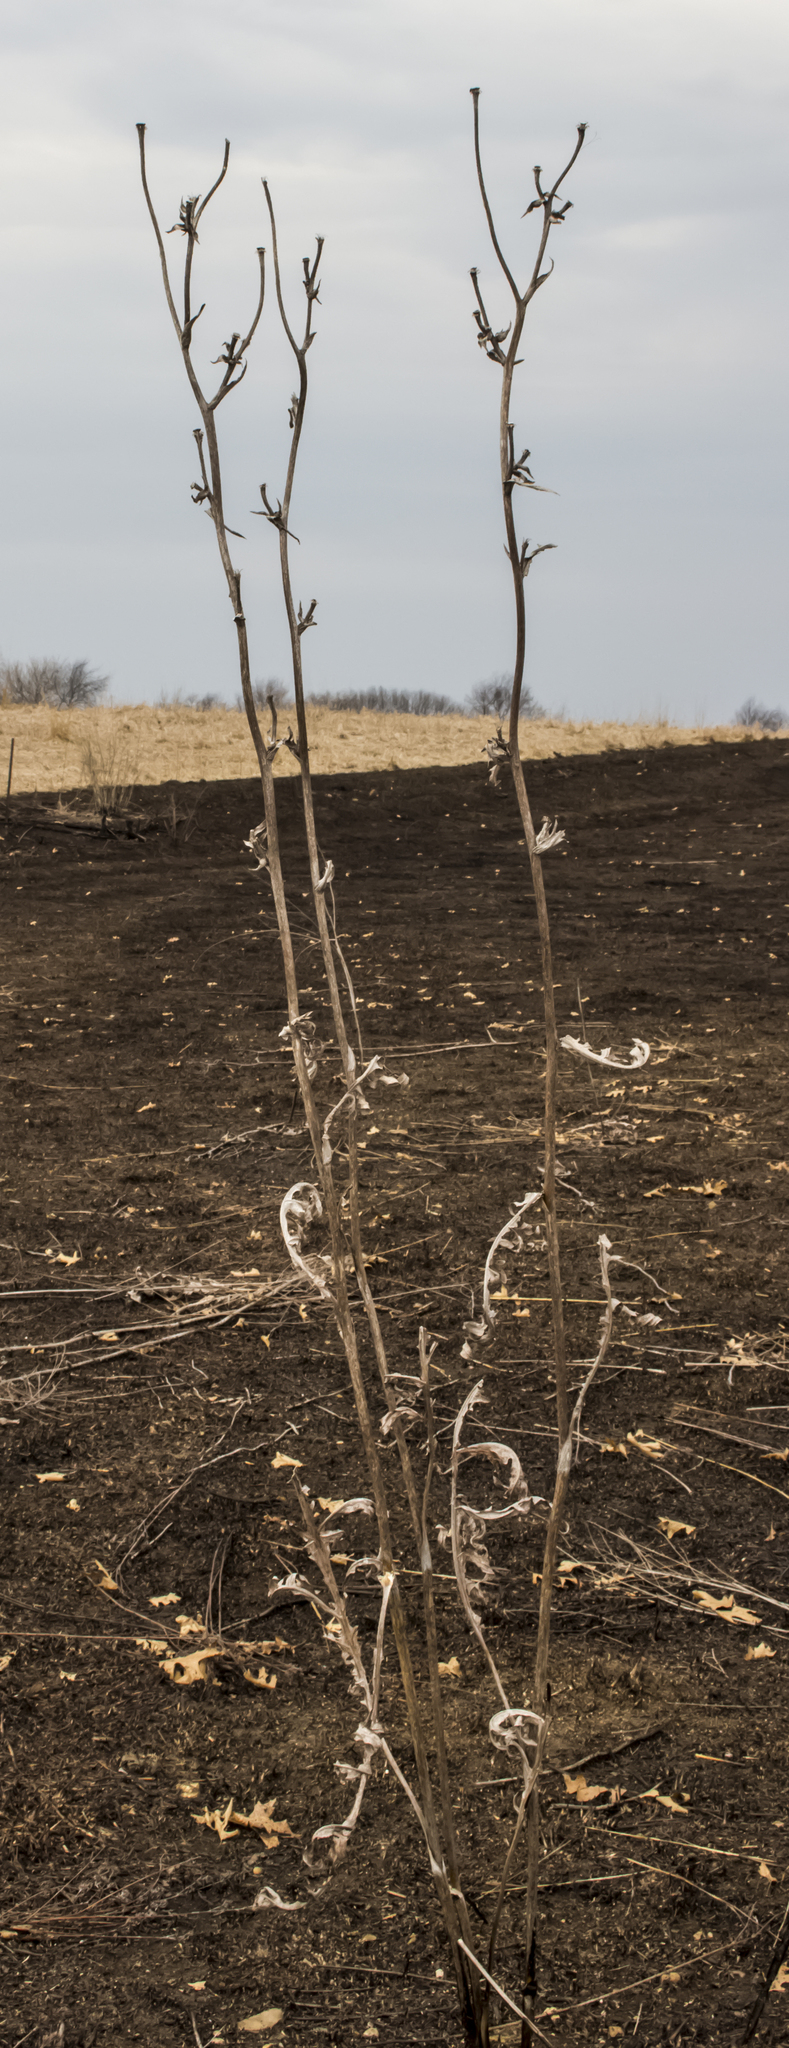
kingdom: Plantae
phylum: Tracheophyta
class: Magnoliopsida
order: Asterales
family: Asteraceae
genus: Silphium
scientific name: Silphium laciniatum
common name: Polarplant
